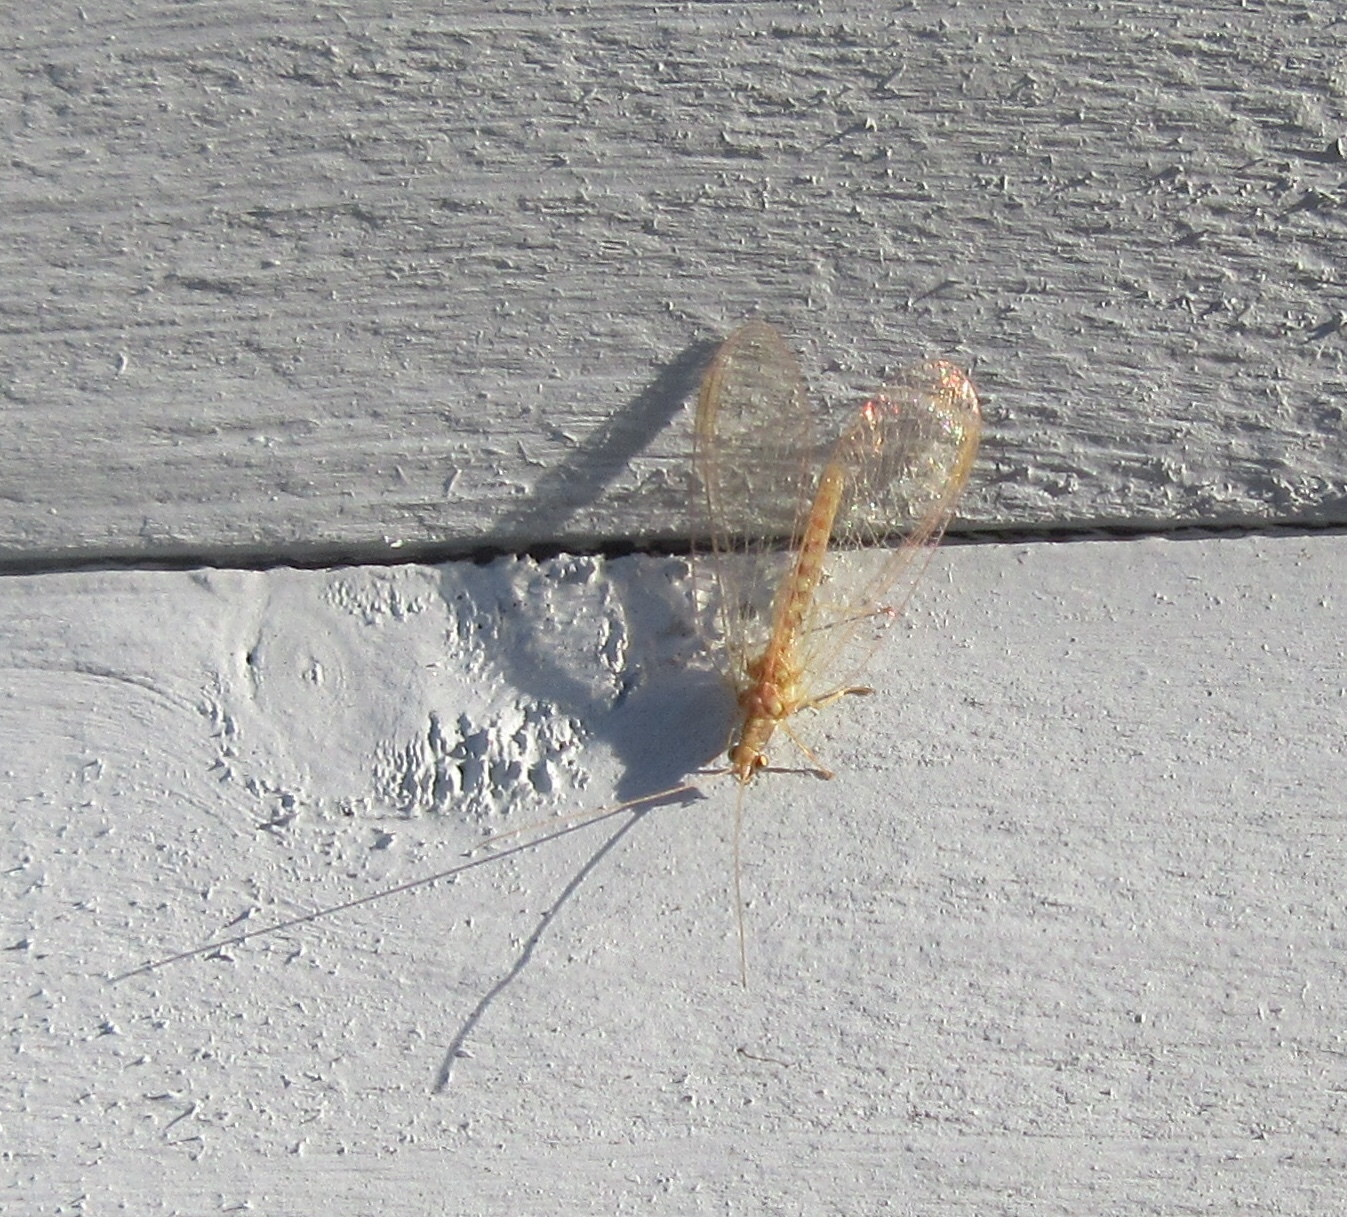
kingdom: Animalia
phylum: Arthropoda
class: Insecta
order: Neuroptera
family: Chrysopidae
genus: Chrysoperla
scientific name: Chrysoperla
